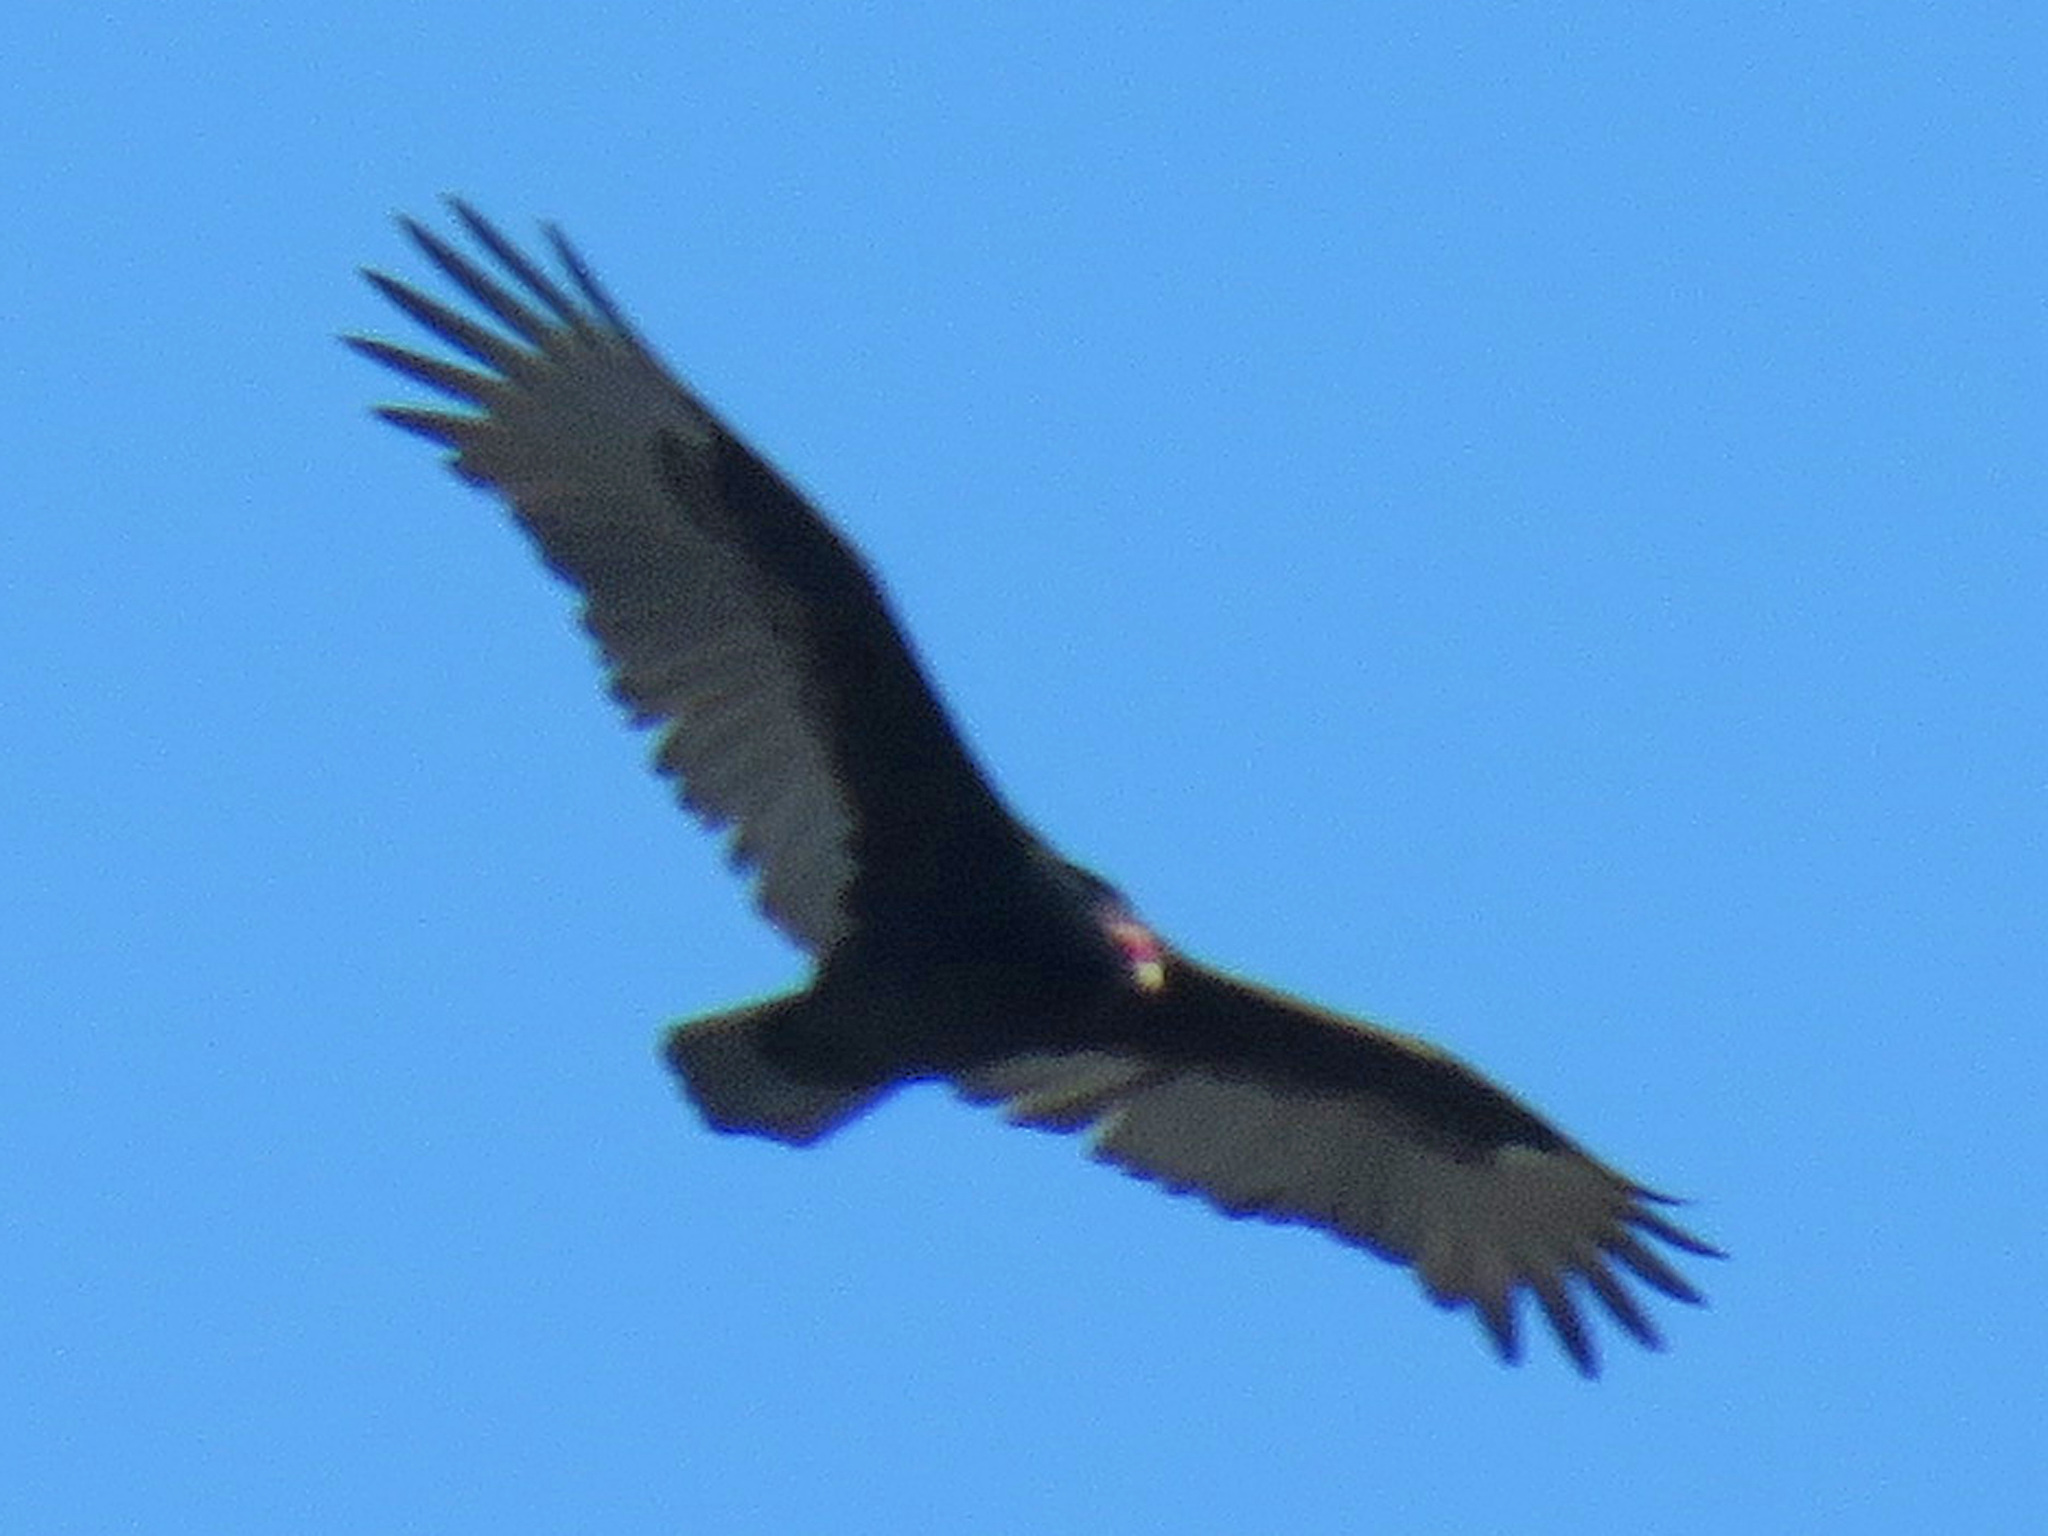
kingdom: Animalia
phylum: Chordata
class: Aves
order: Accipitriformes
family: Cathartidae
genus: Cathartes
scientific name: Cathartes aura
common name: Turkey vulture
